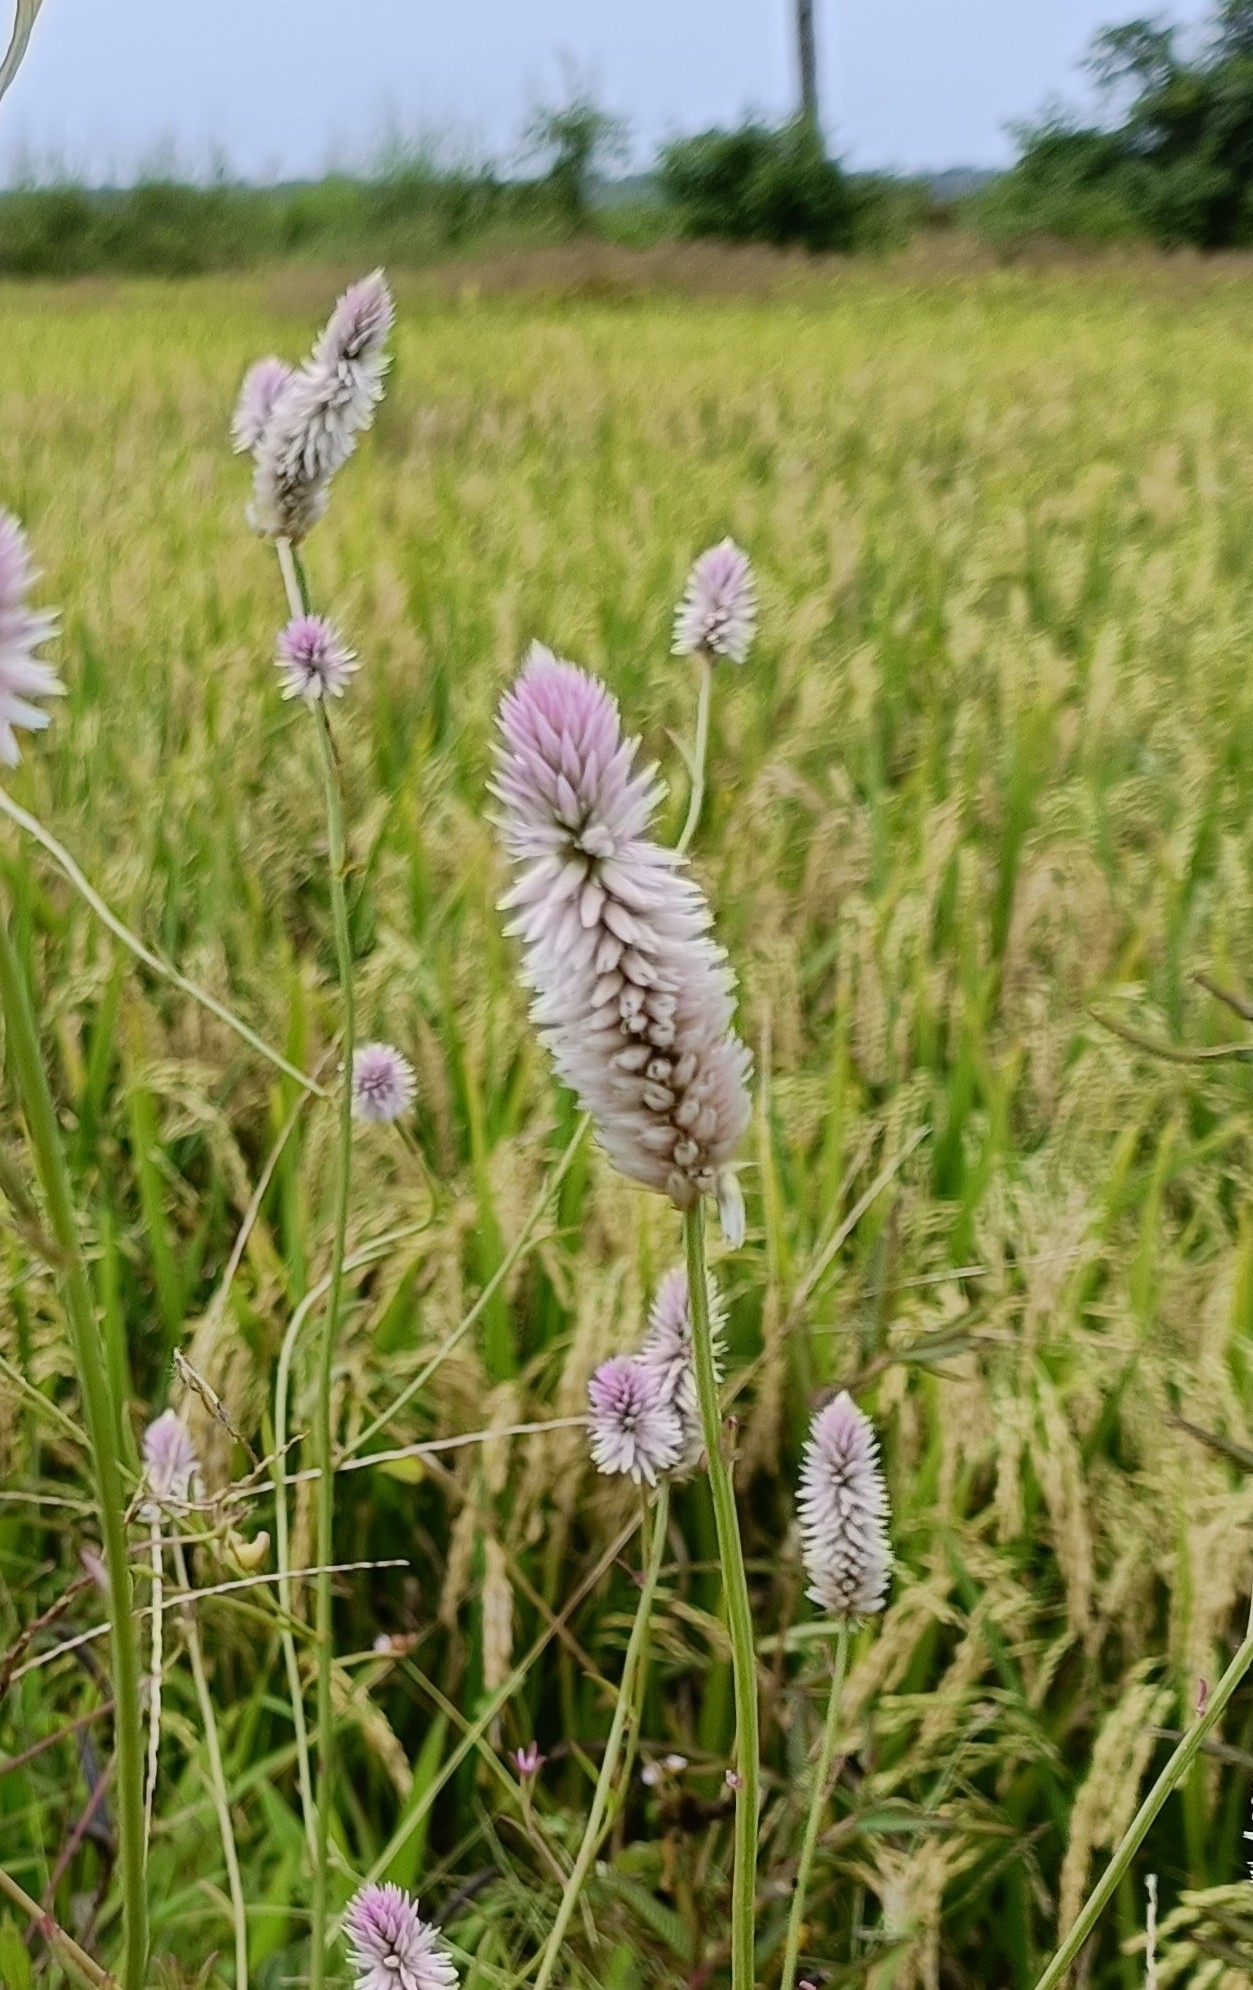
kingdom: Plantae
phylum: Tracheophyta
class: Magnoliopsida
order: Caryophyllales
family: Amaranthaceae
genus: Celosia
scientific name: Celosia argentea
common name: Feather cockscomb
